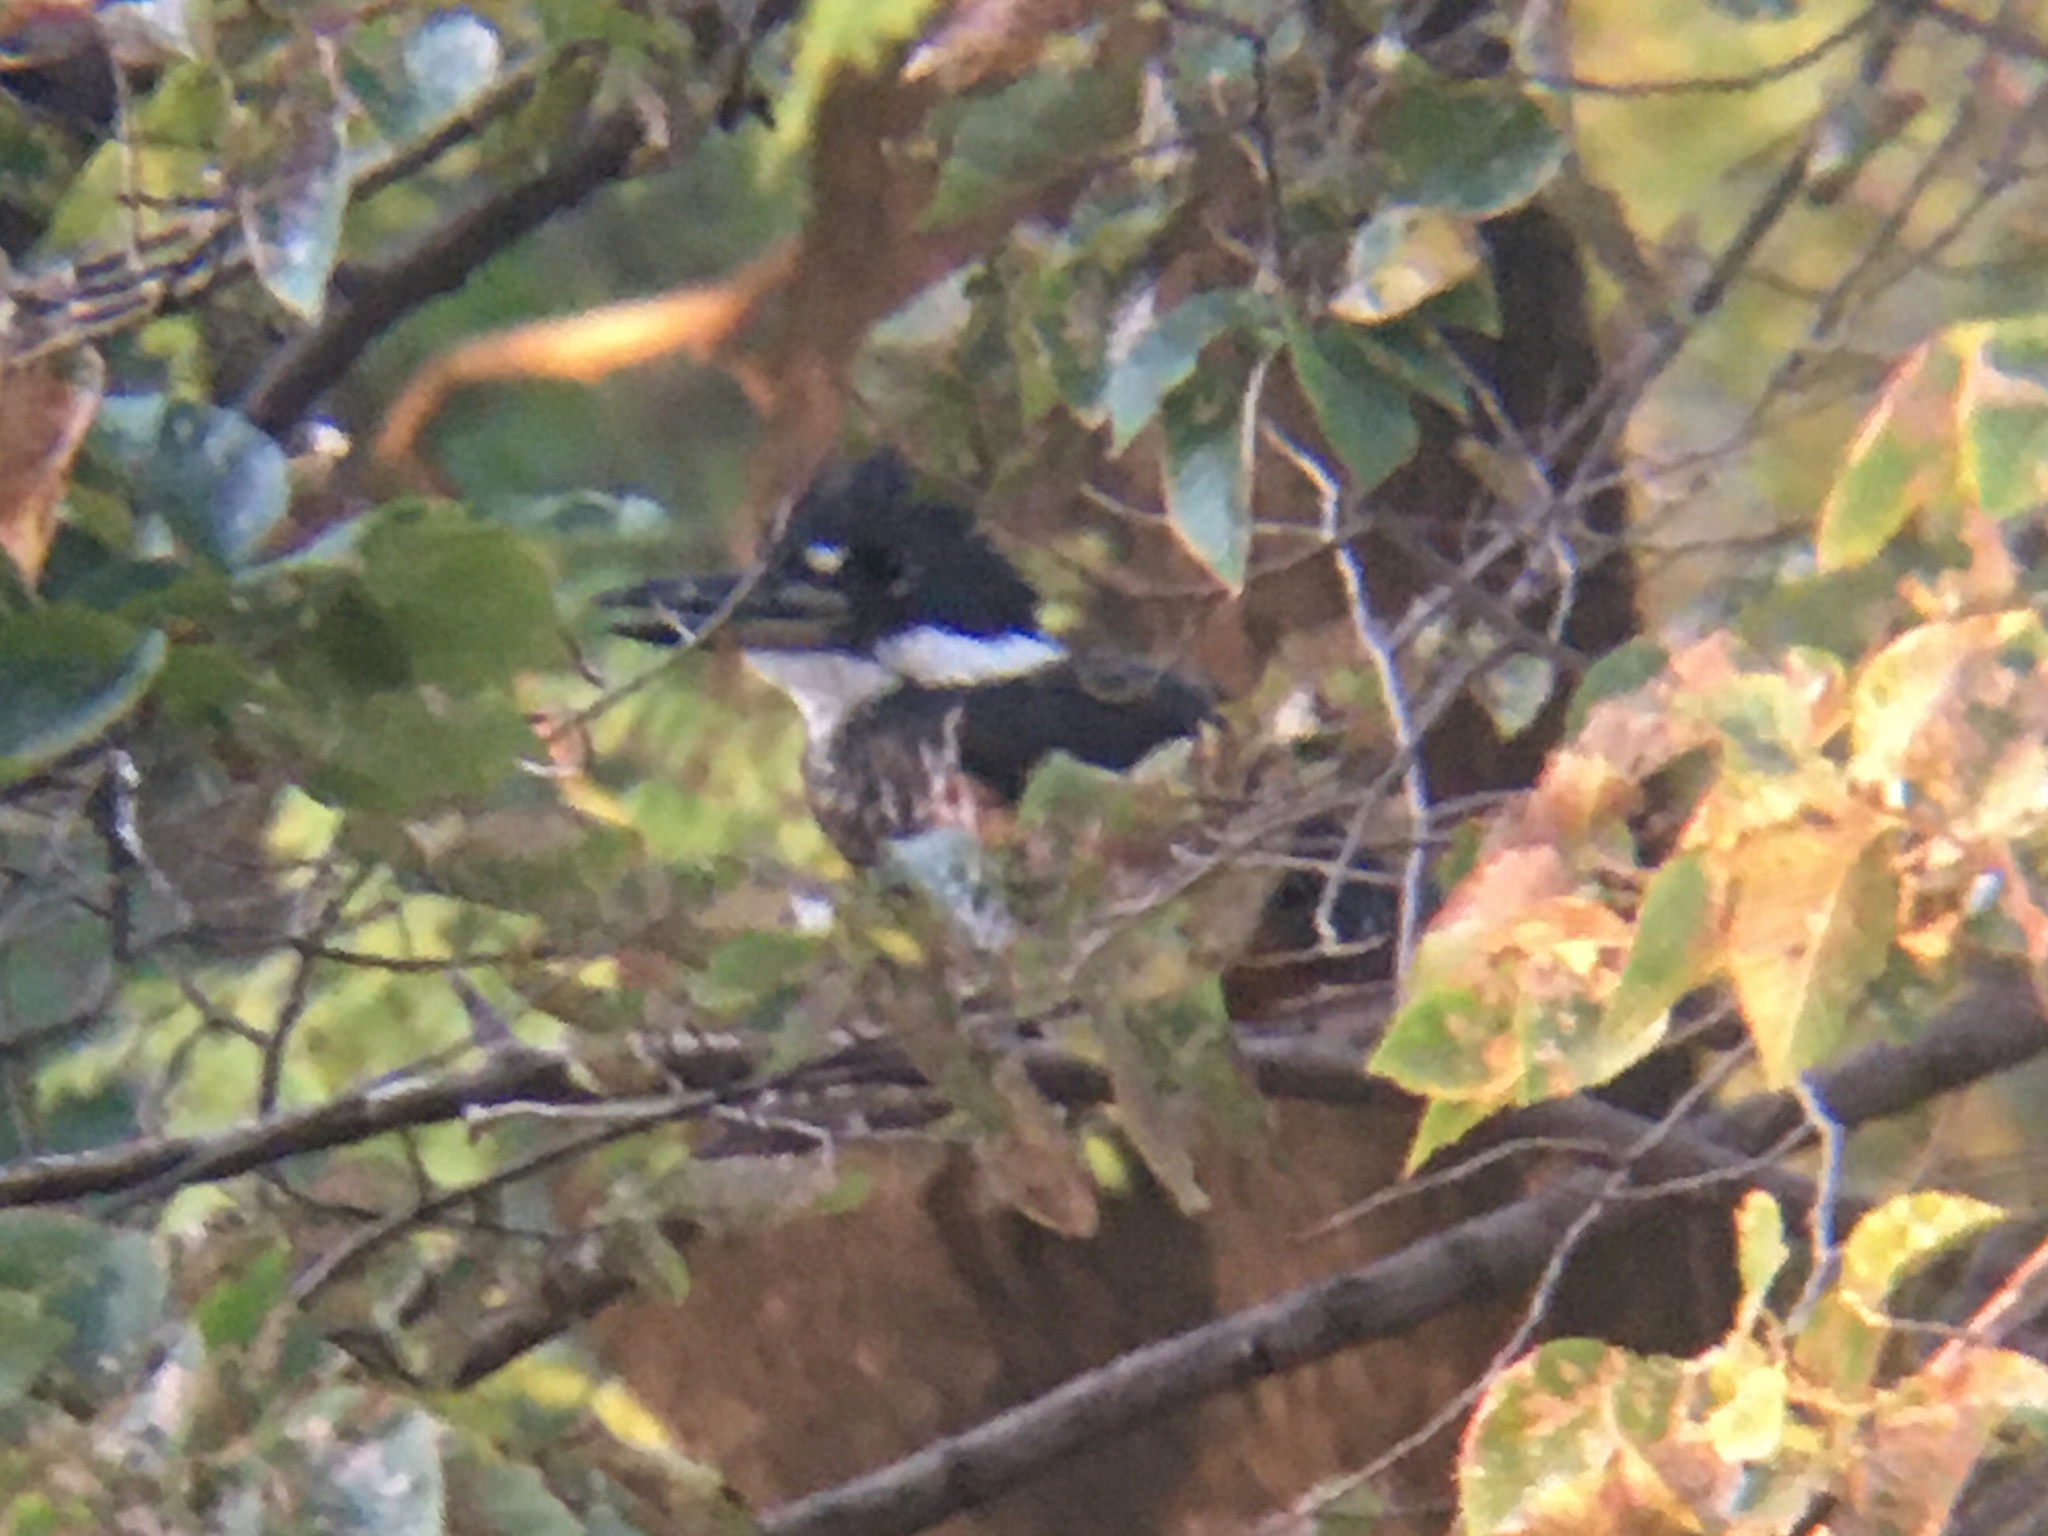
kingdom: Animalia
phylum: Chordata
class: Aves
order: Coraciiformes
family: Alcedinidae
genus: Megaceryle
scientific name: Megaceryle torquata
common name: Ringed kingfisher
